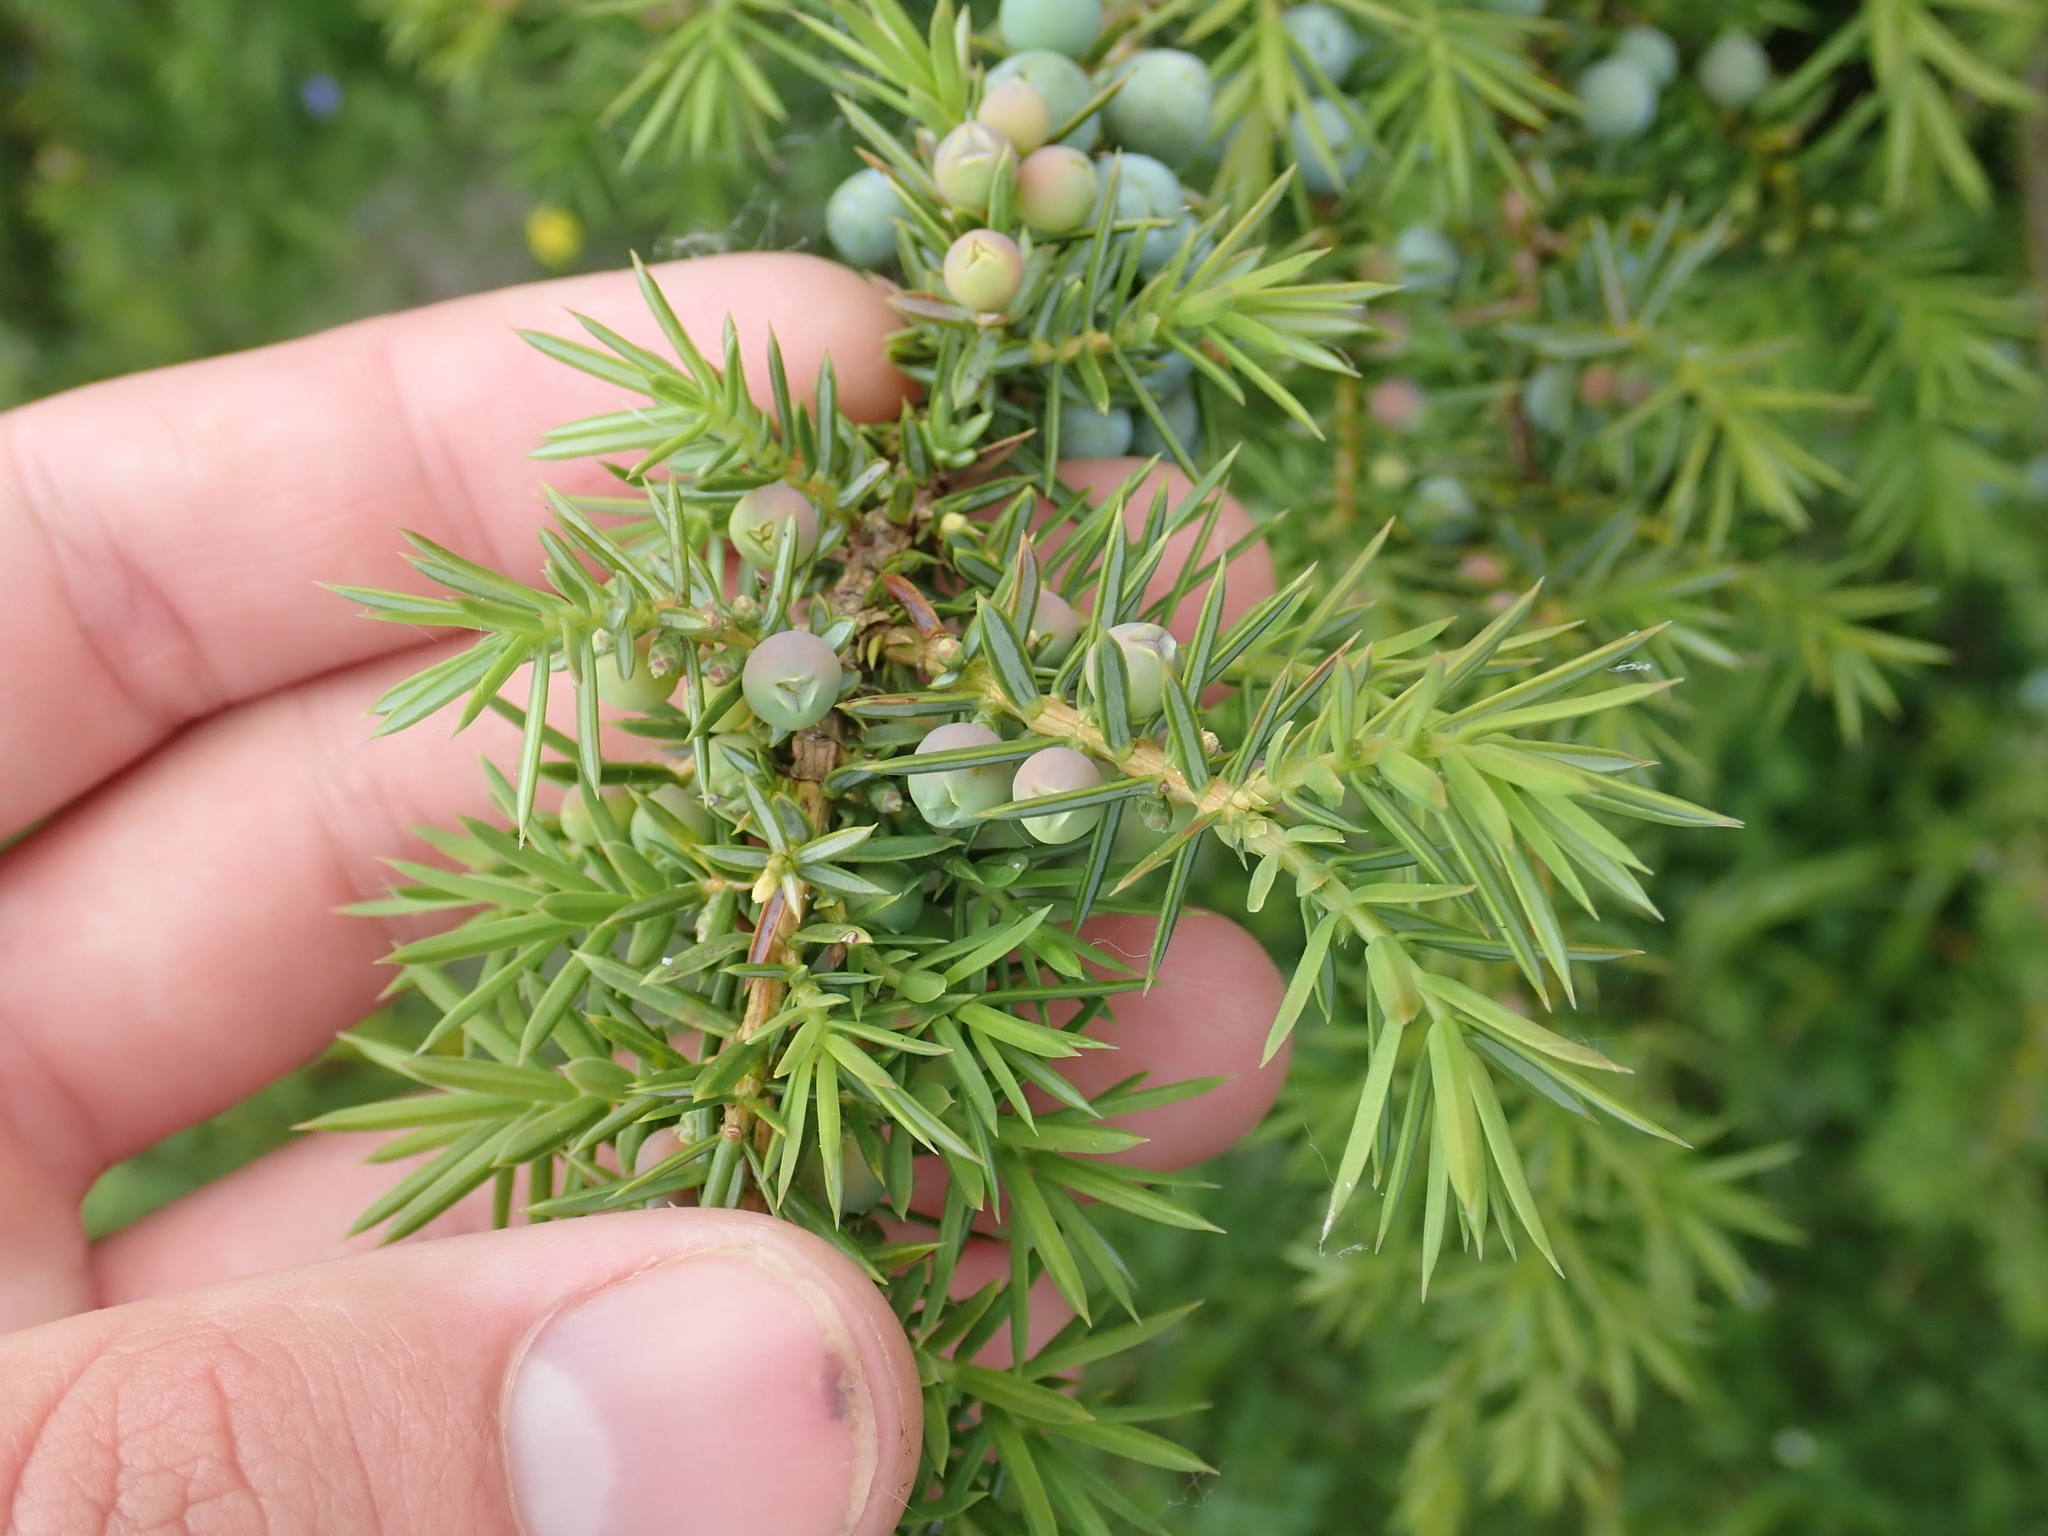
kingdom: Plantae
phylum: Tracheophyta
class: Pinopsida
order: Pinales
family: Cupressaceae
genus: Juniperus
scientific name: Juniperus communis
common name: Common juniper
